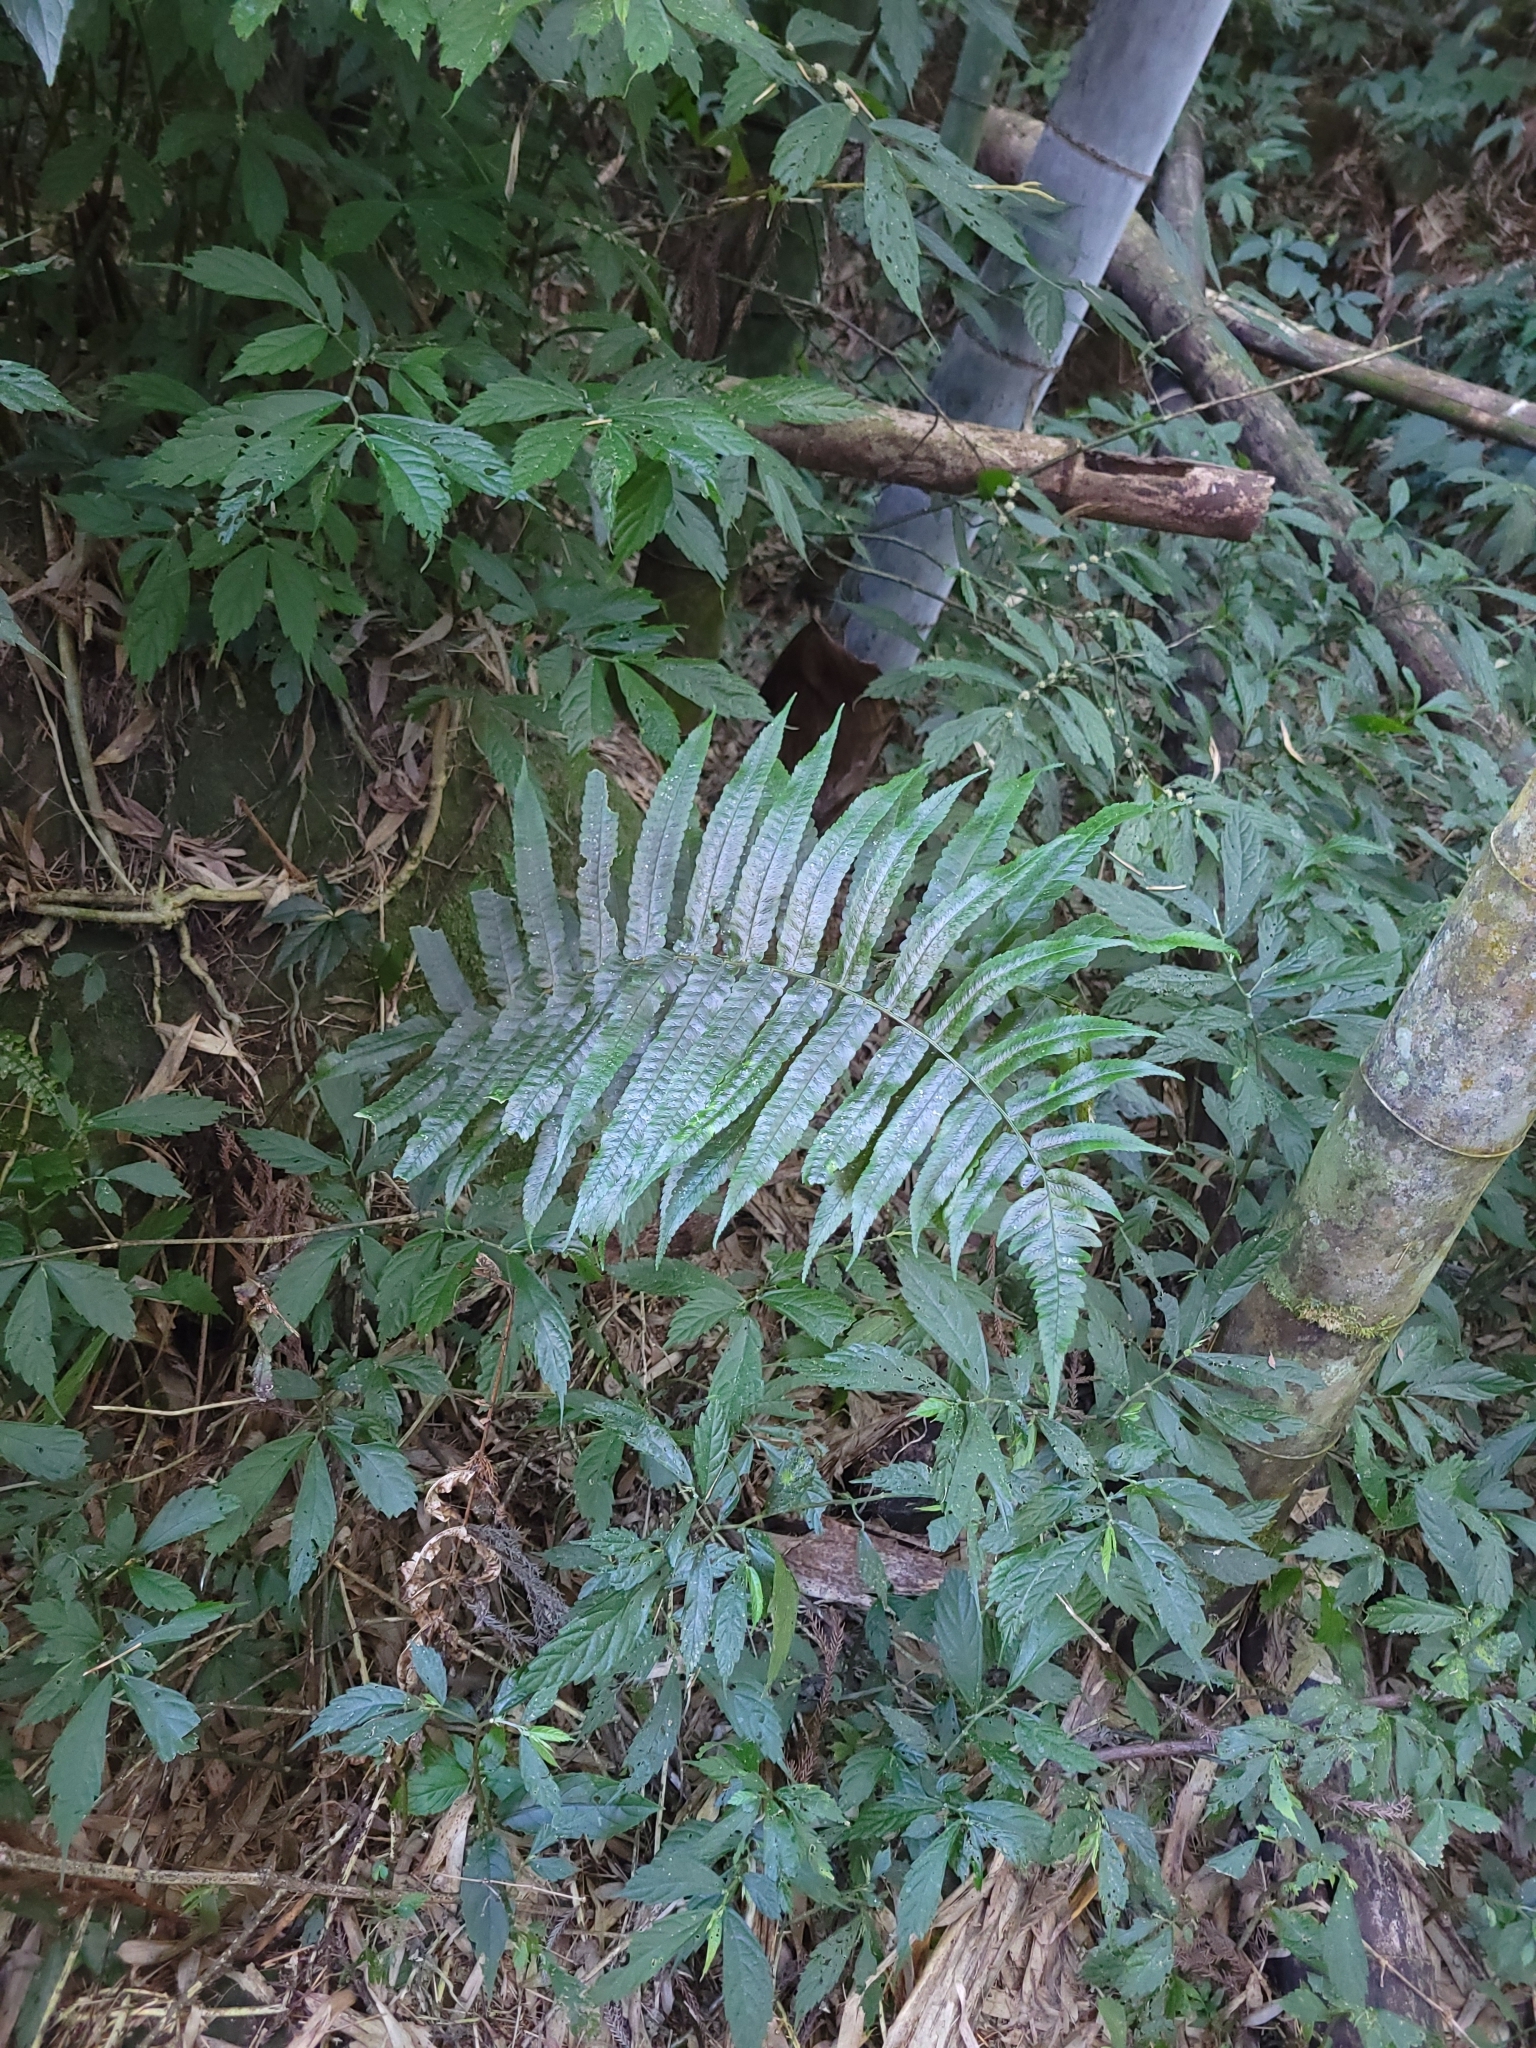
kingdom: Plantae
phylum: Tracheophyta
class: Polypodiopsida
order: Polypodiales
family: Dryopteridaceae
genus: Dryopteris
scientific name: Dryopteris scottii
